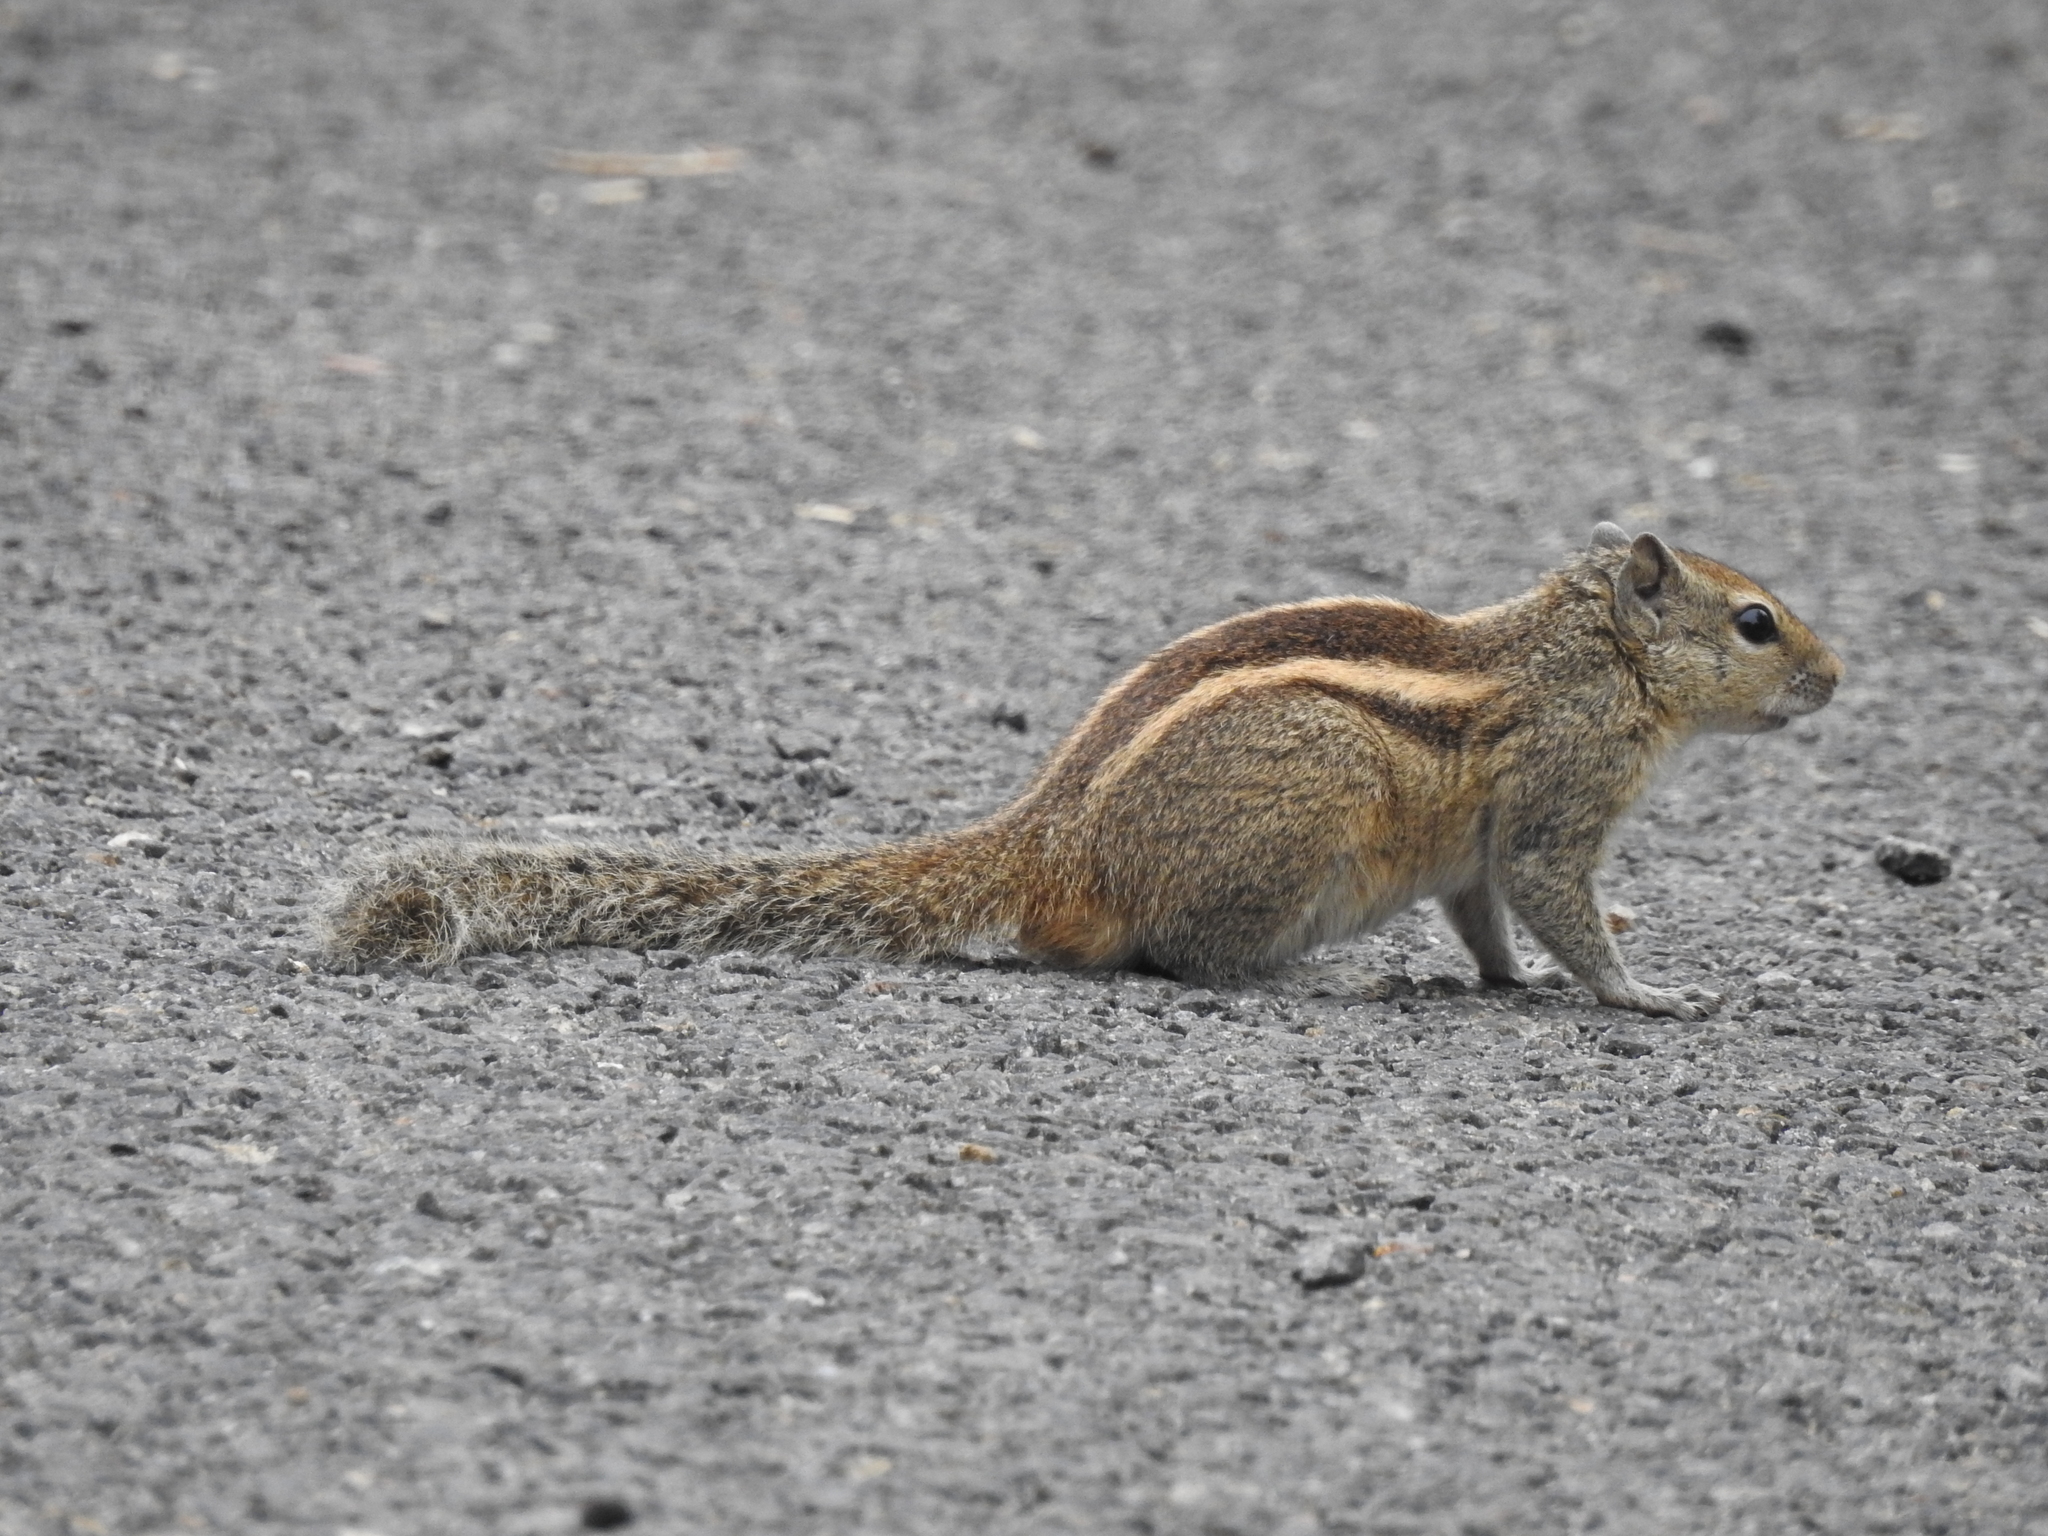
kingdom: Animalia
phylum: Chordata
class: Mammalia
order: Rodentia
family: Sciuridae
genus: Funambulus
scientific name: Funambulus palmarum
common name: Indian palm squirrel
